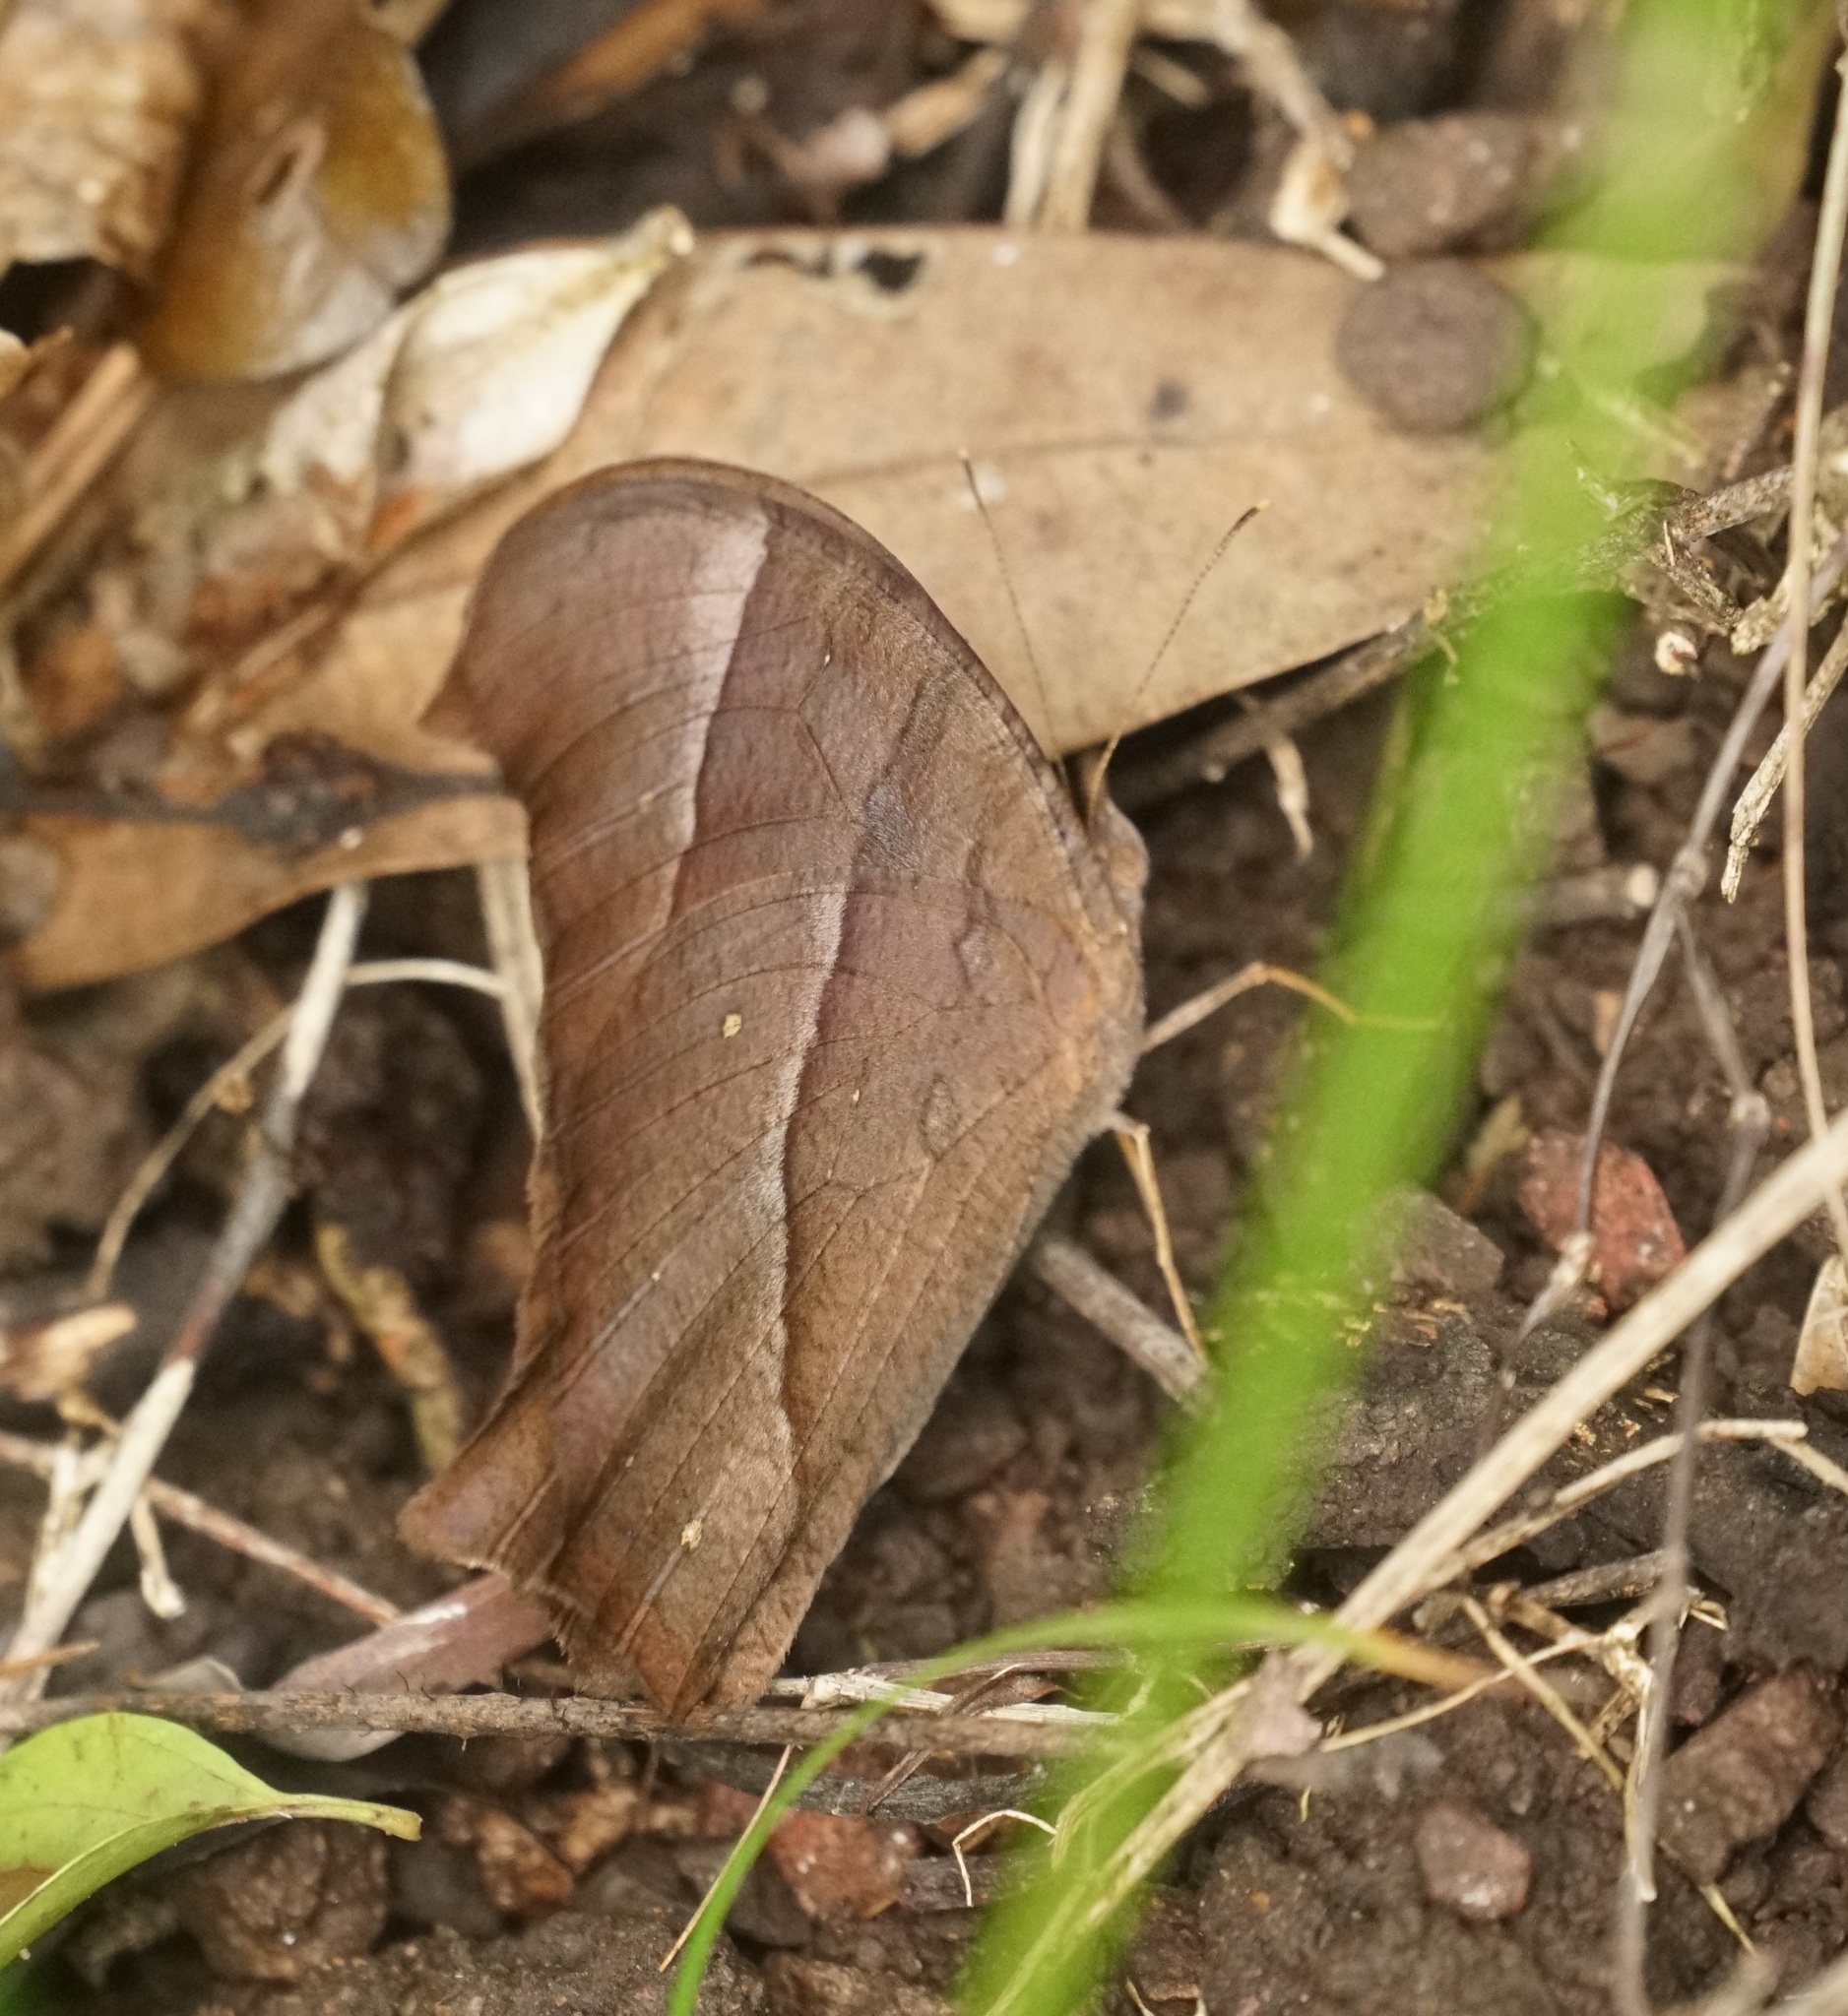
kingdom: Animalia
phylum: Arthropoda
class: Insecta
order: Lepidoptera
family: Nymphalidae
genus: Melanitis
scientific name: Melanitis leda
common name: Twilight brown
